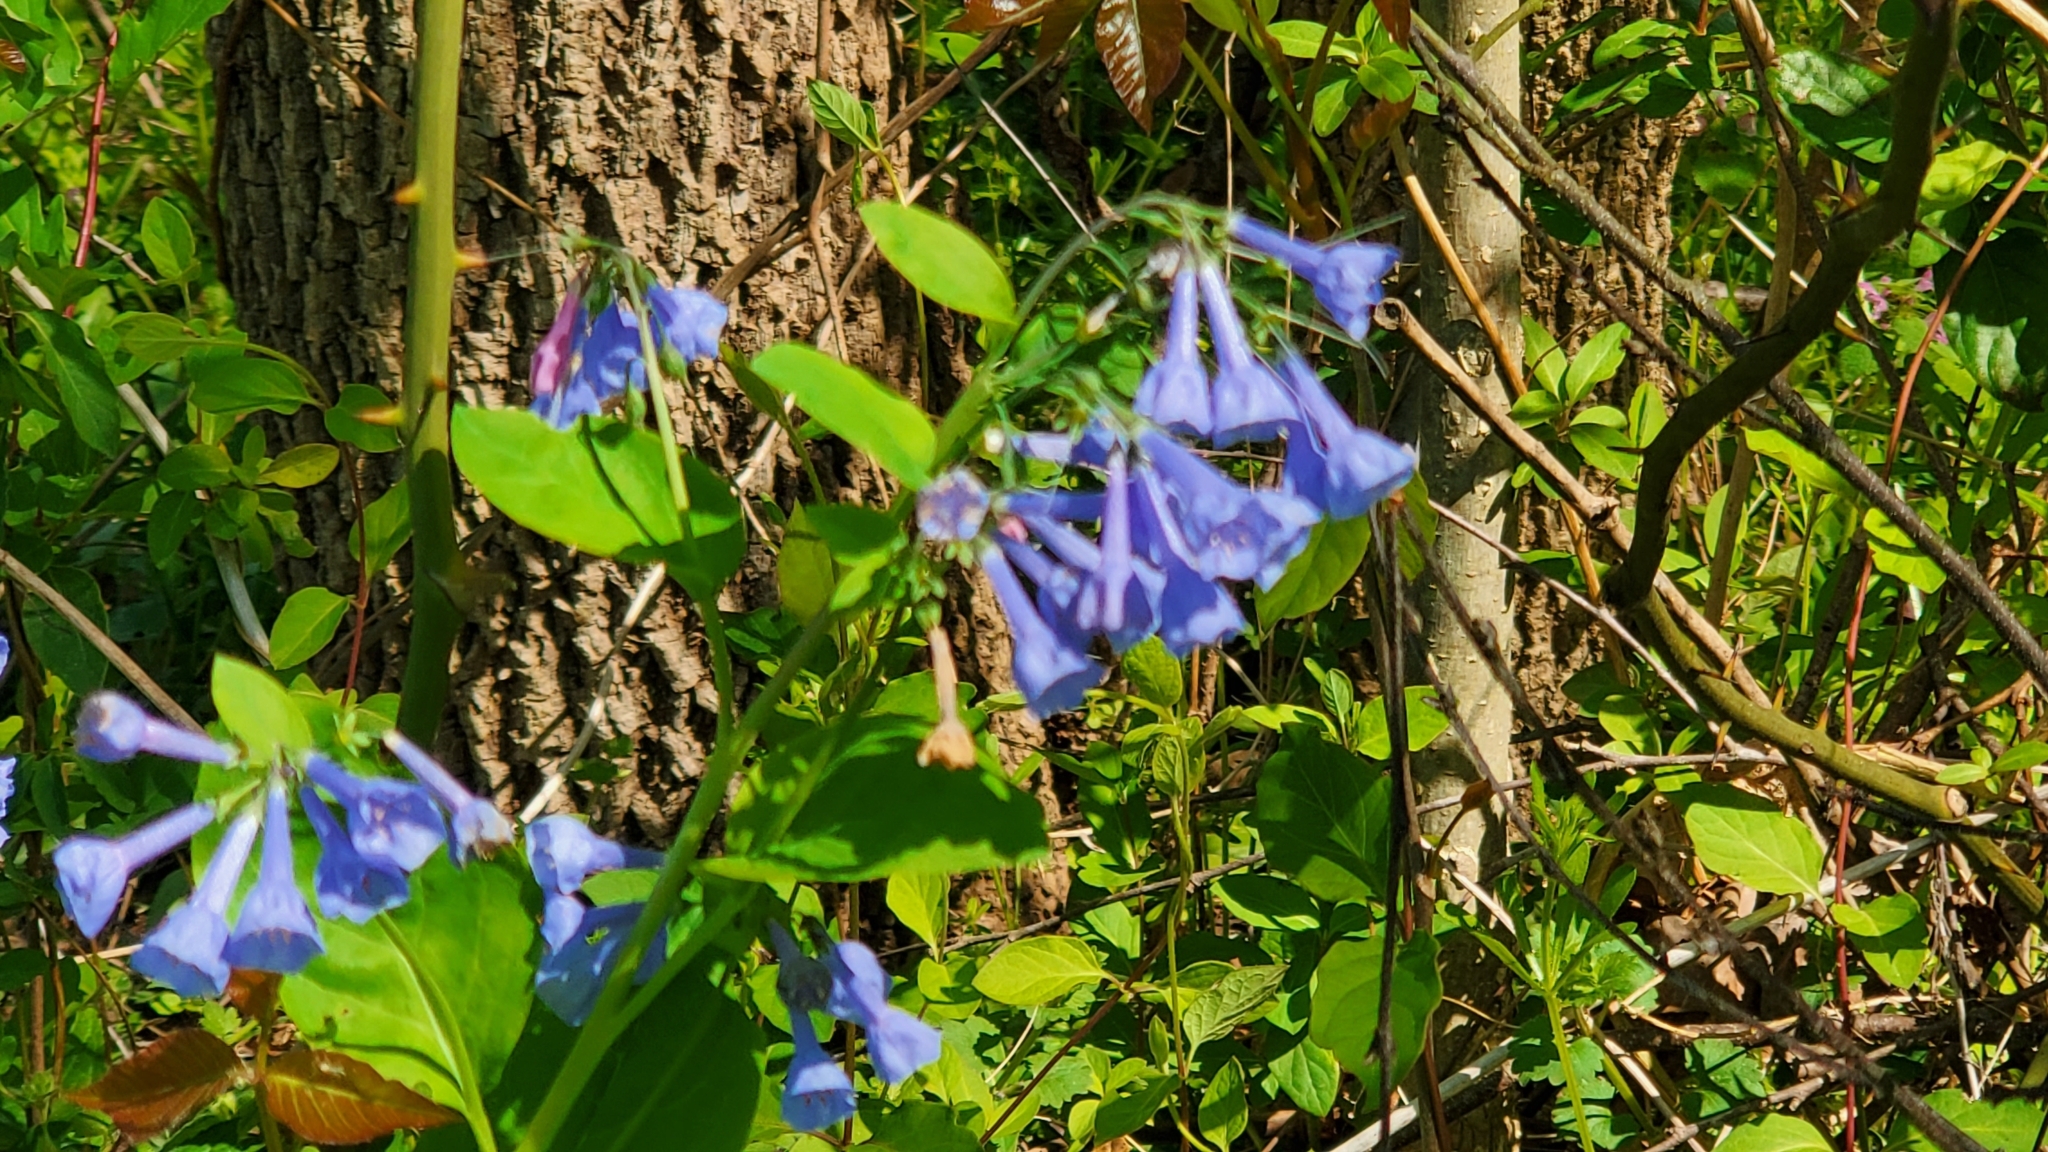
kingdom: Plantae
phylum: Tracheophyta
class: Magnoliopsida
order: Boraginales
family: Boraginaceae
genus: Mertensia
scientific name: Mertensia virginica
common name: Virginia bluebells
